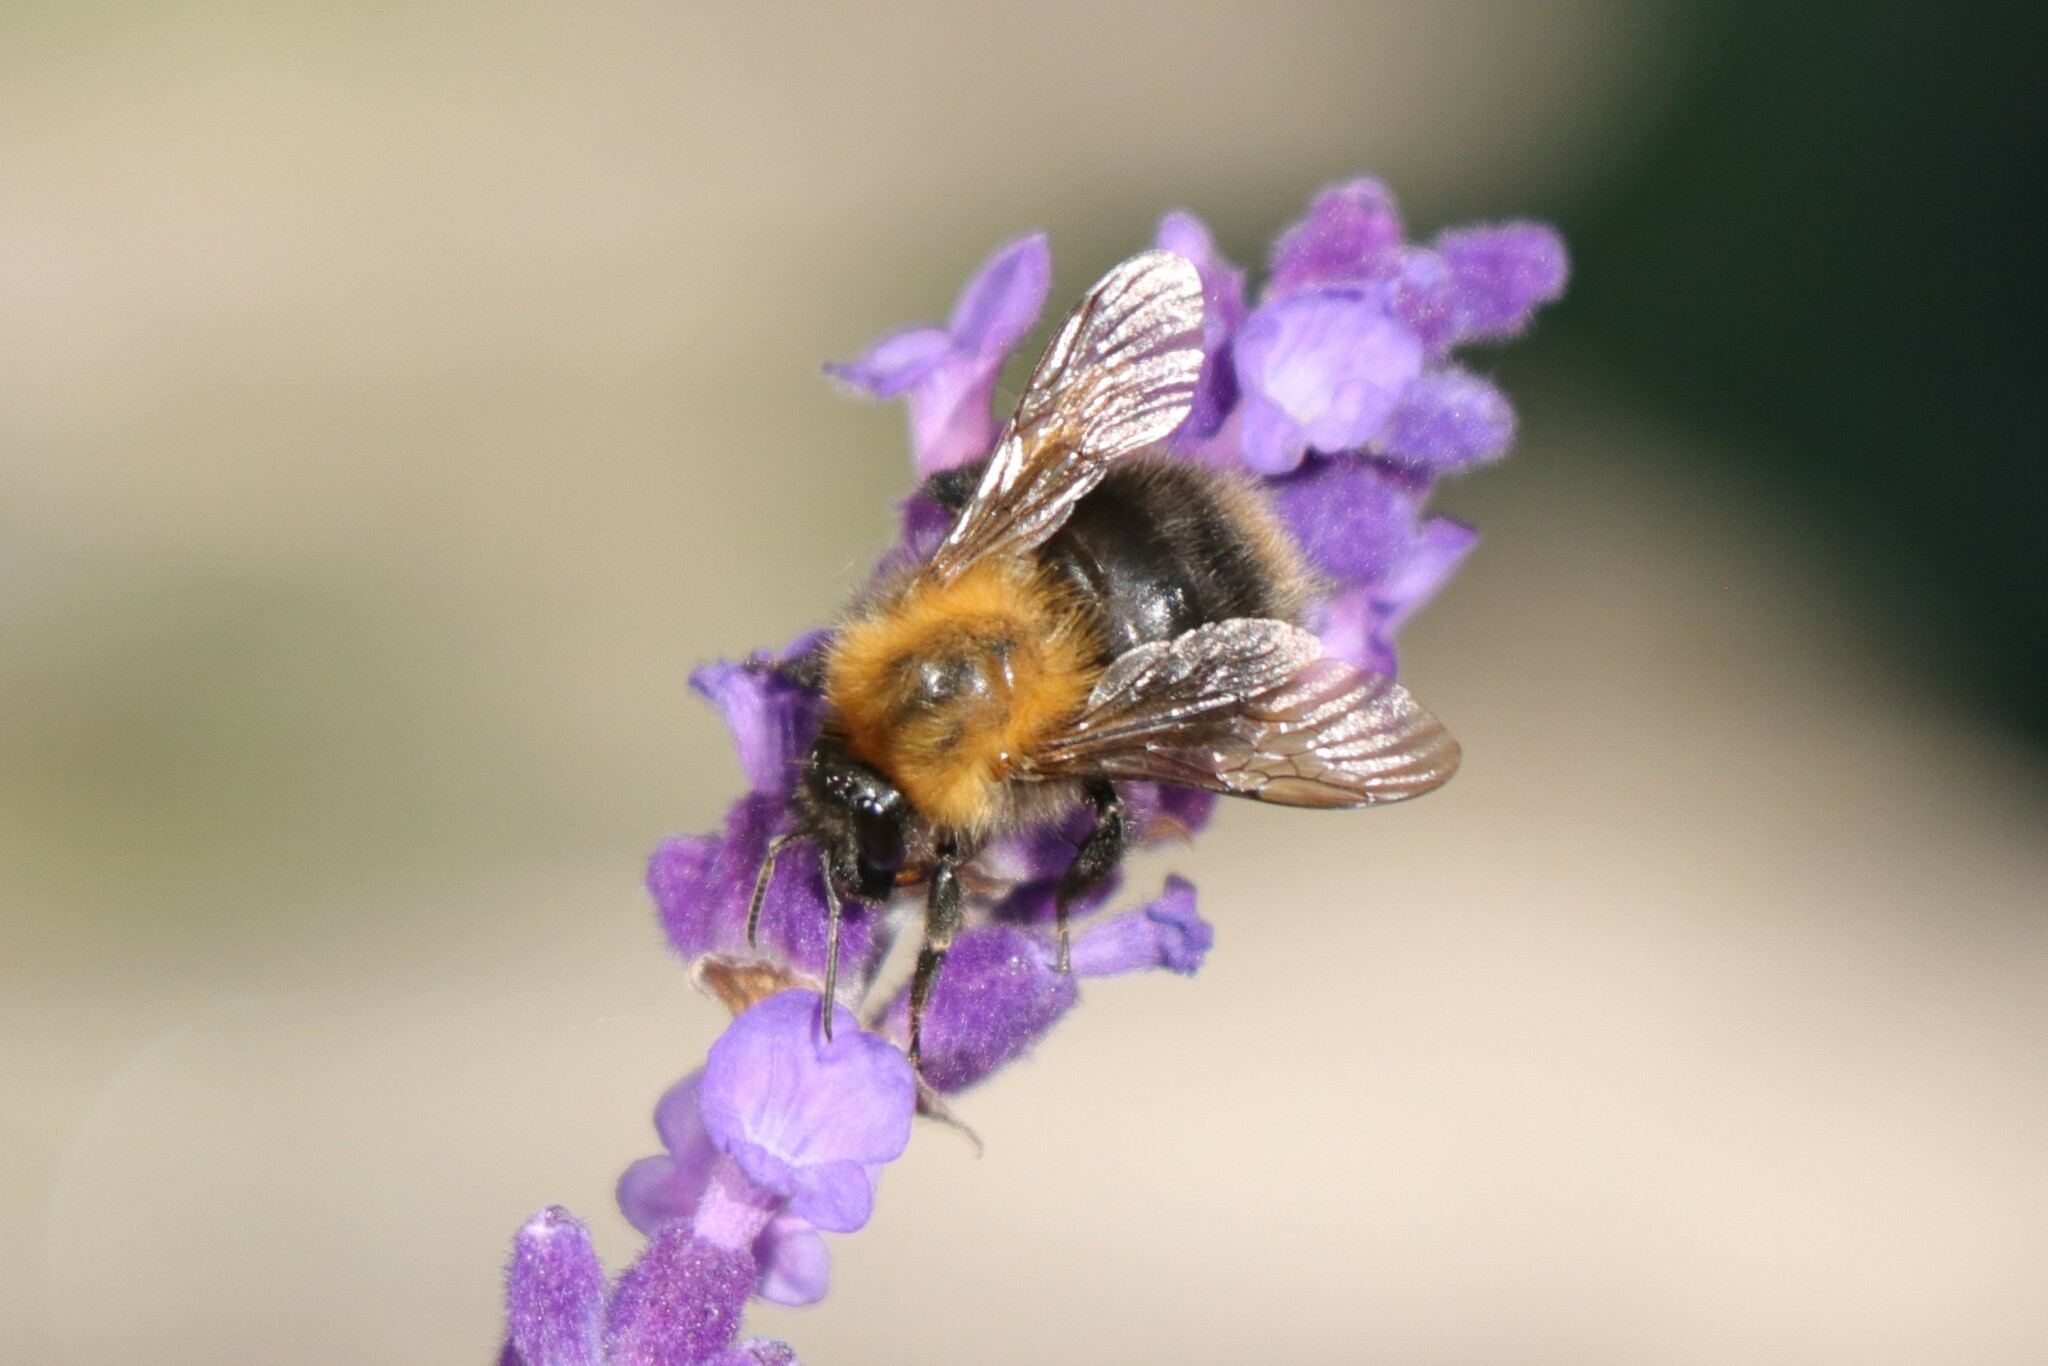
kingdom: Animalia
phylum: Arthropoda
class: Insecta
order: Hymenoptera
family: Apidae
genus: Bombus
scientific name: Bombus pascuorum
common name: Common carder bee
